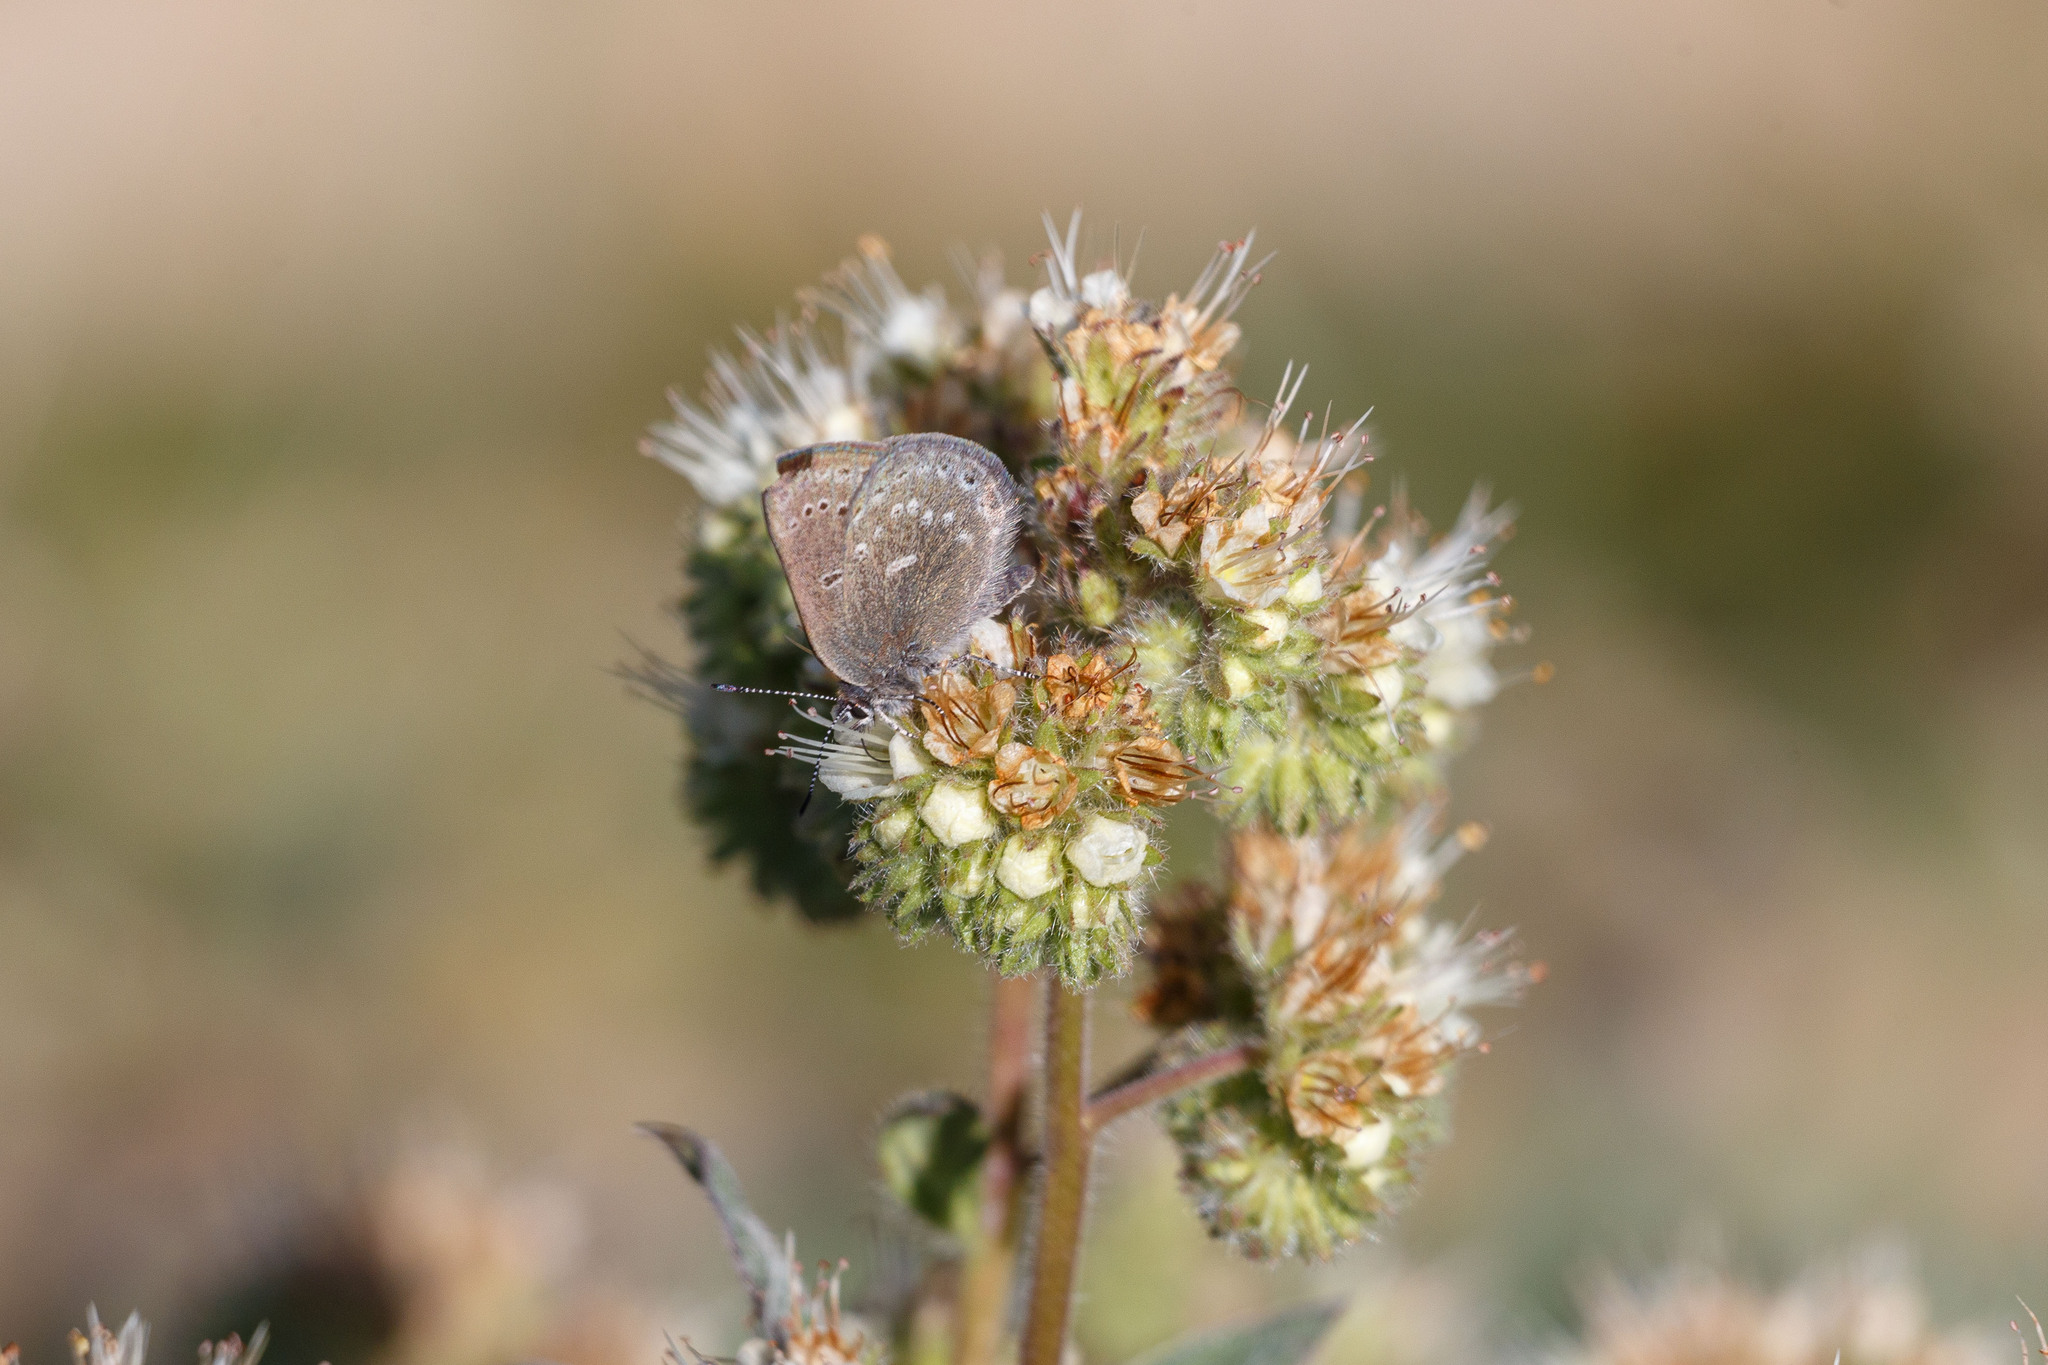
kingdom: Animalia
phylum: Arthropoda
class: Insecta
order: Lepidoptera
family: Lycaenidae
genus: Satyrium
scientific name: Satyrium fuliginosa
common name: Western sooty hairstreak
